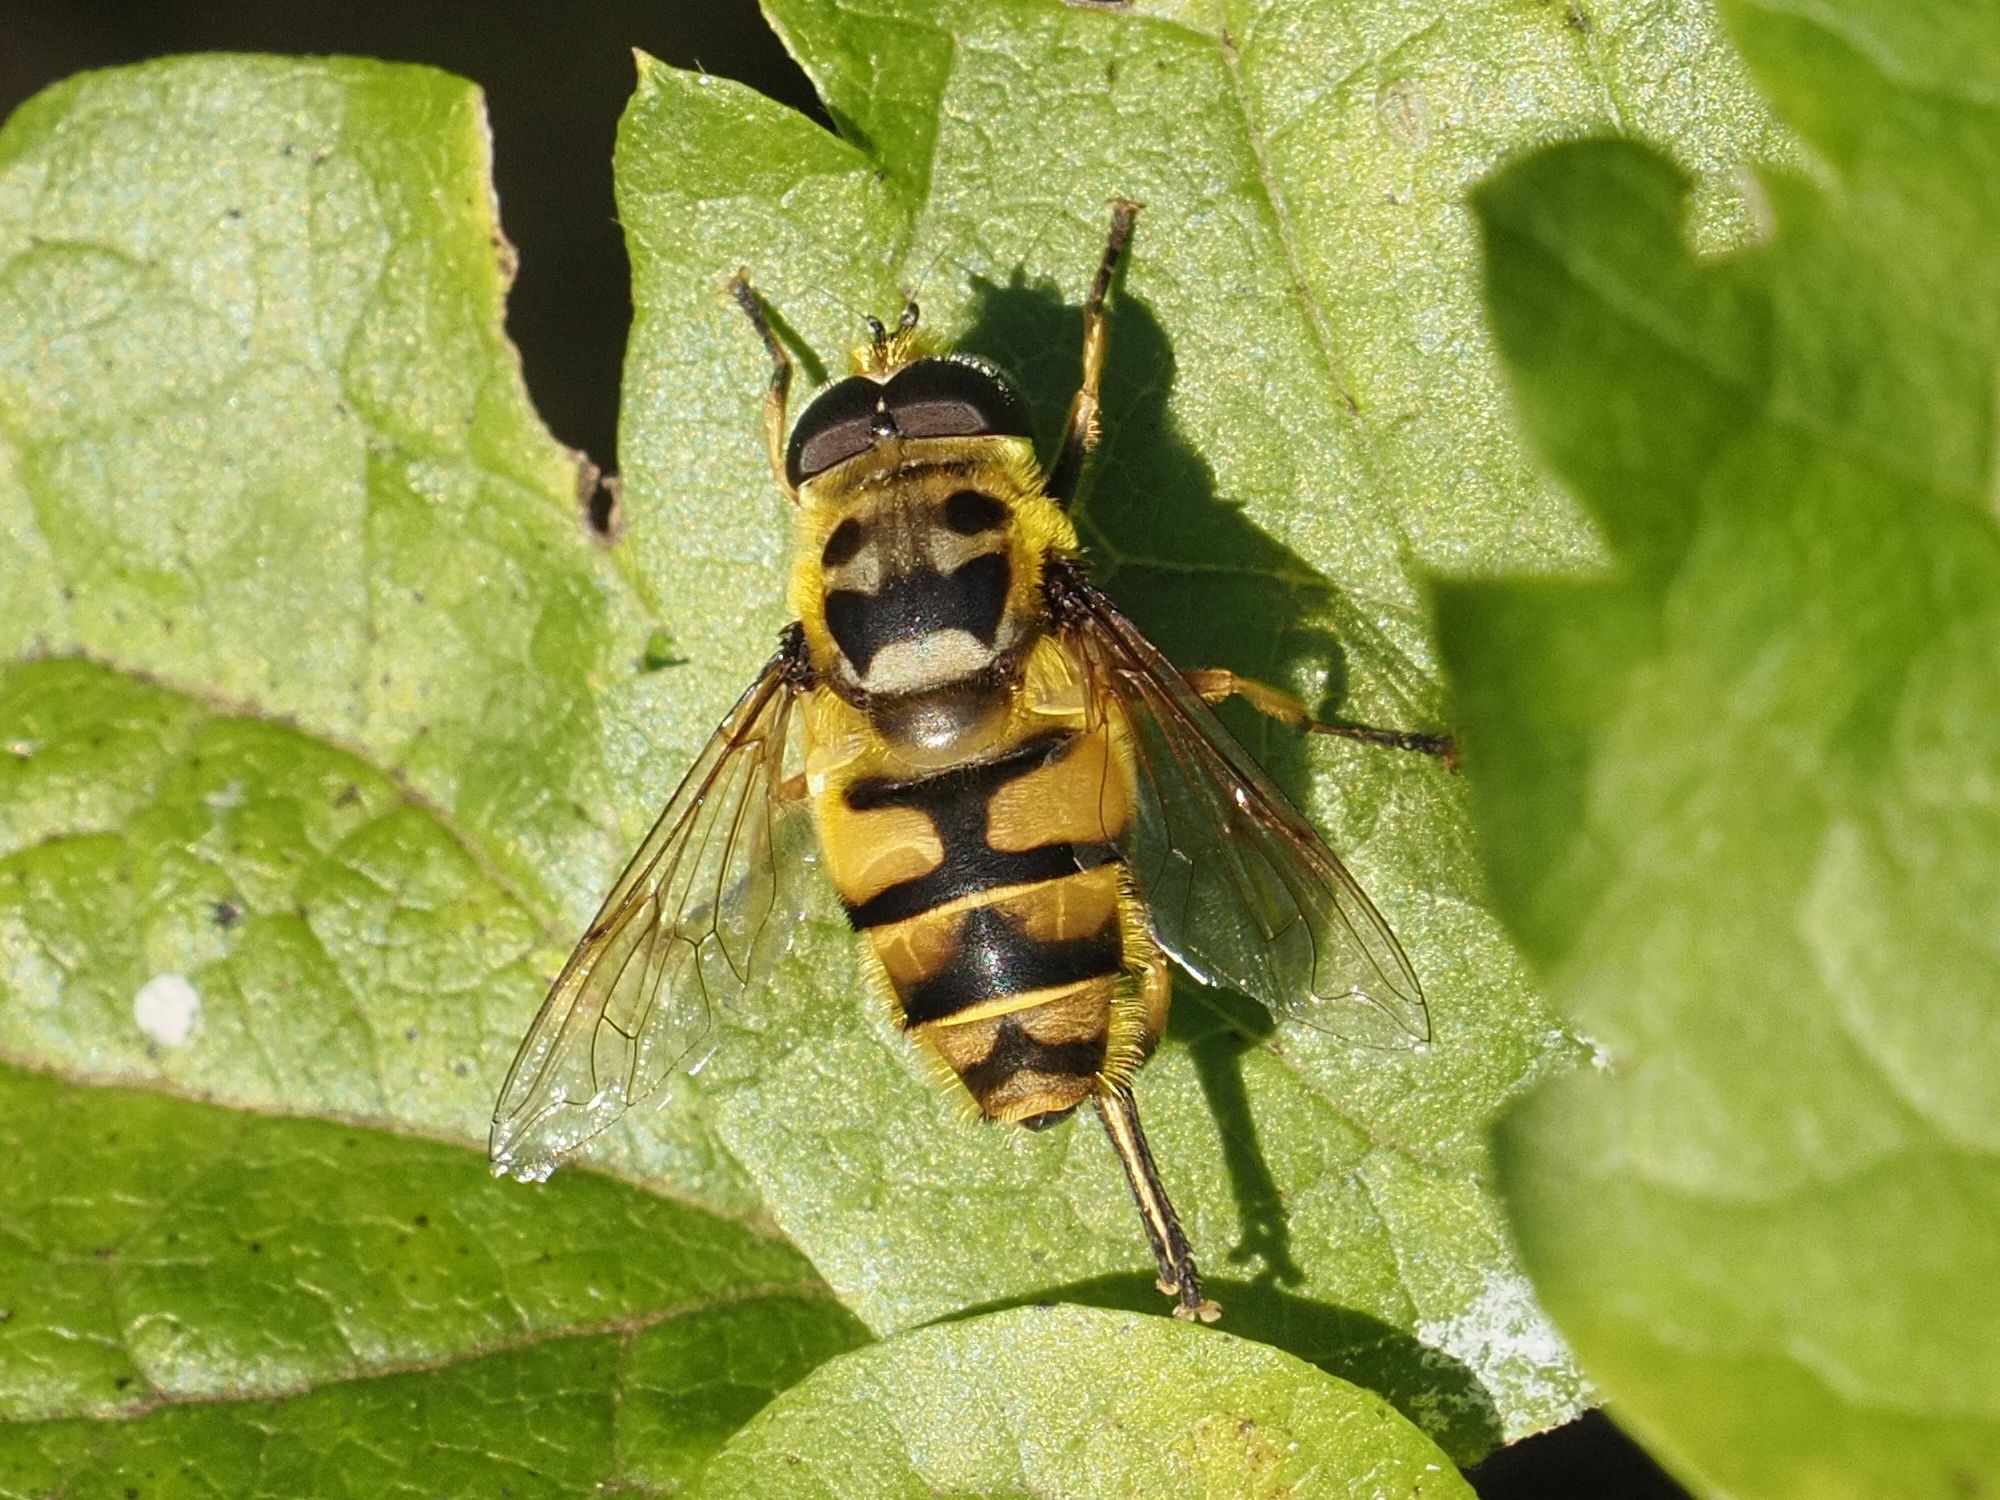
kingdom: Animalia
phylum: Arthropoda
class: Insecta
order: Diptera
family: Syrphidae
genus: Myathropa
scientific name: Myathropa florea
